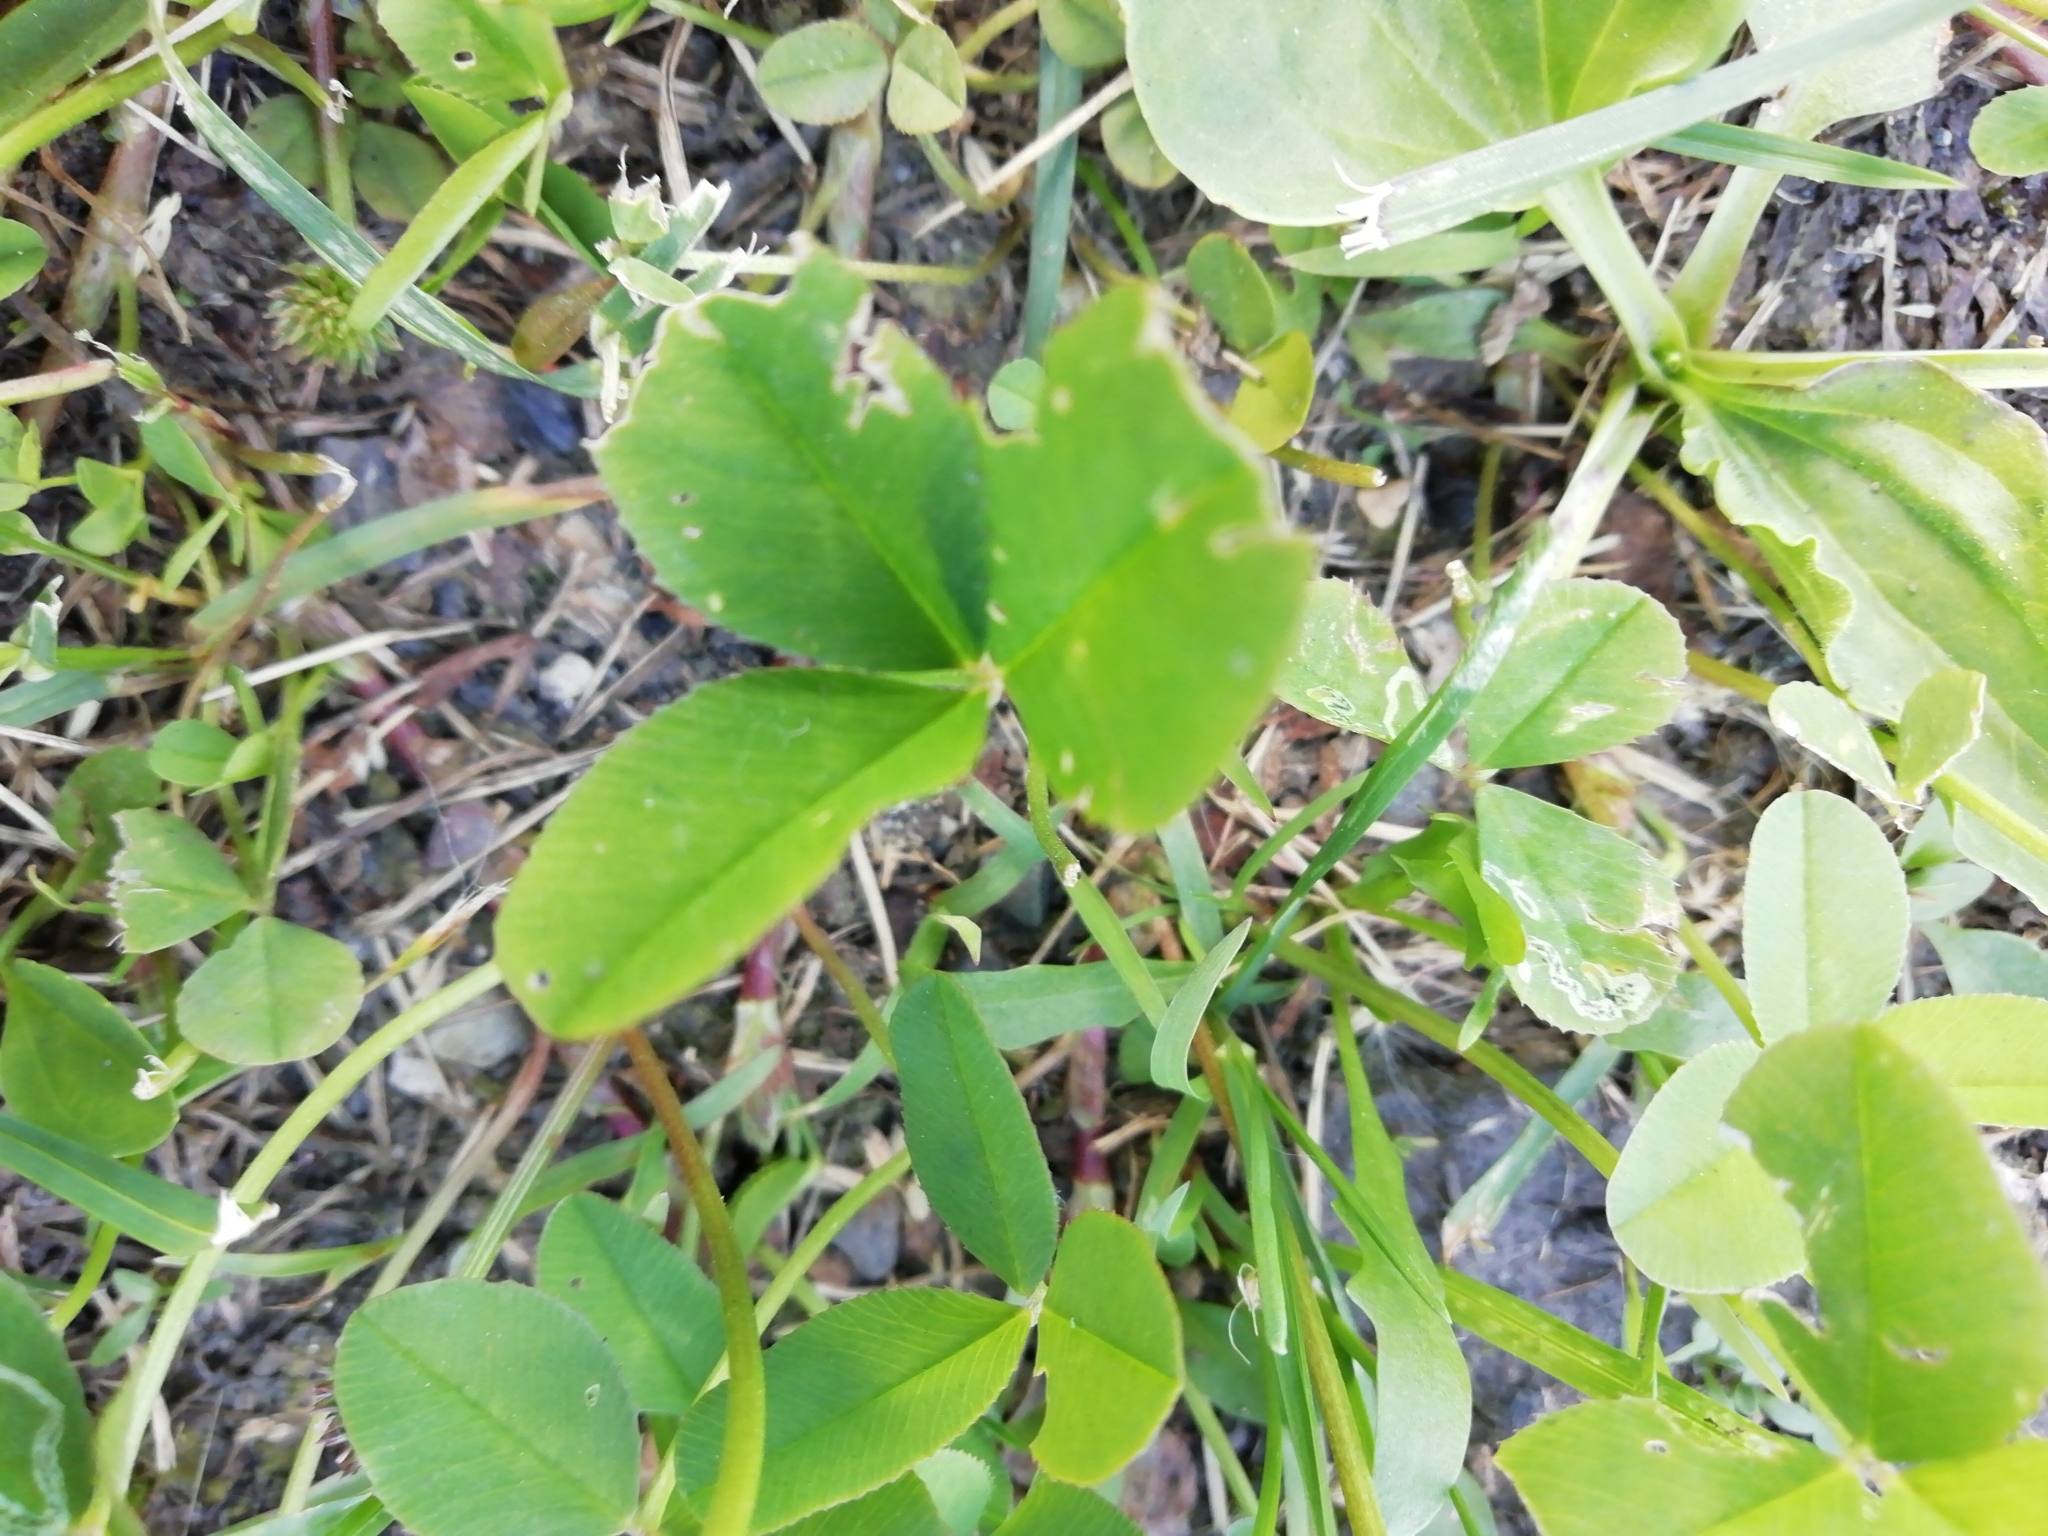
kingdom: Plantae
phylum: Tracheophyta
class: Magnoliopsida
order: Fabales
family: Fabaceae
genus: Trifolium
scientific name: Trifolium repens
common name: White clover
